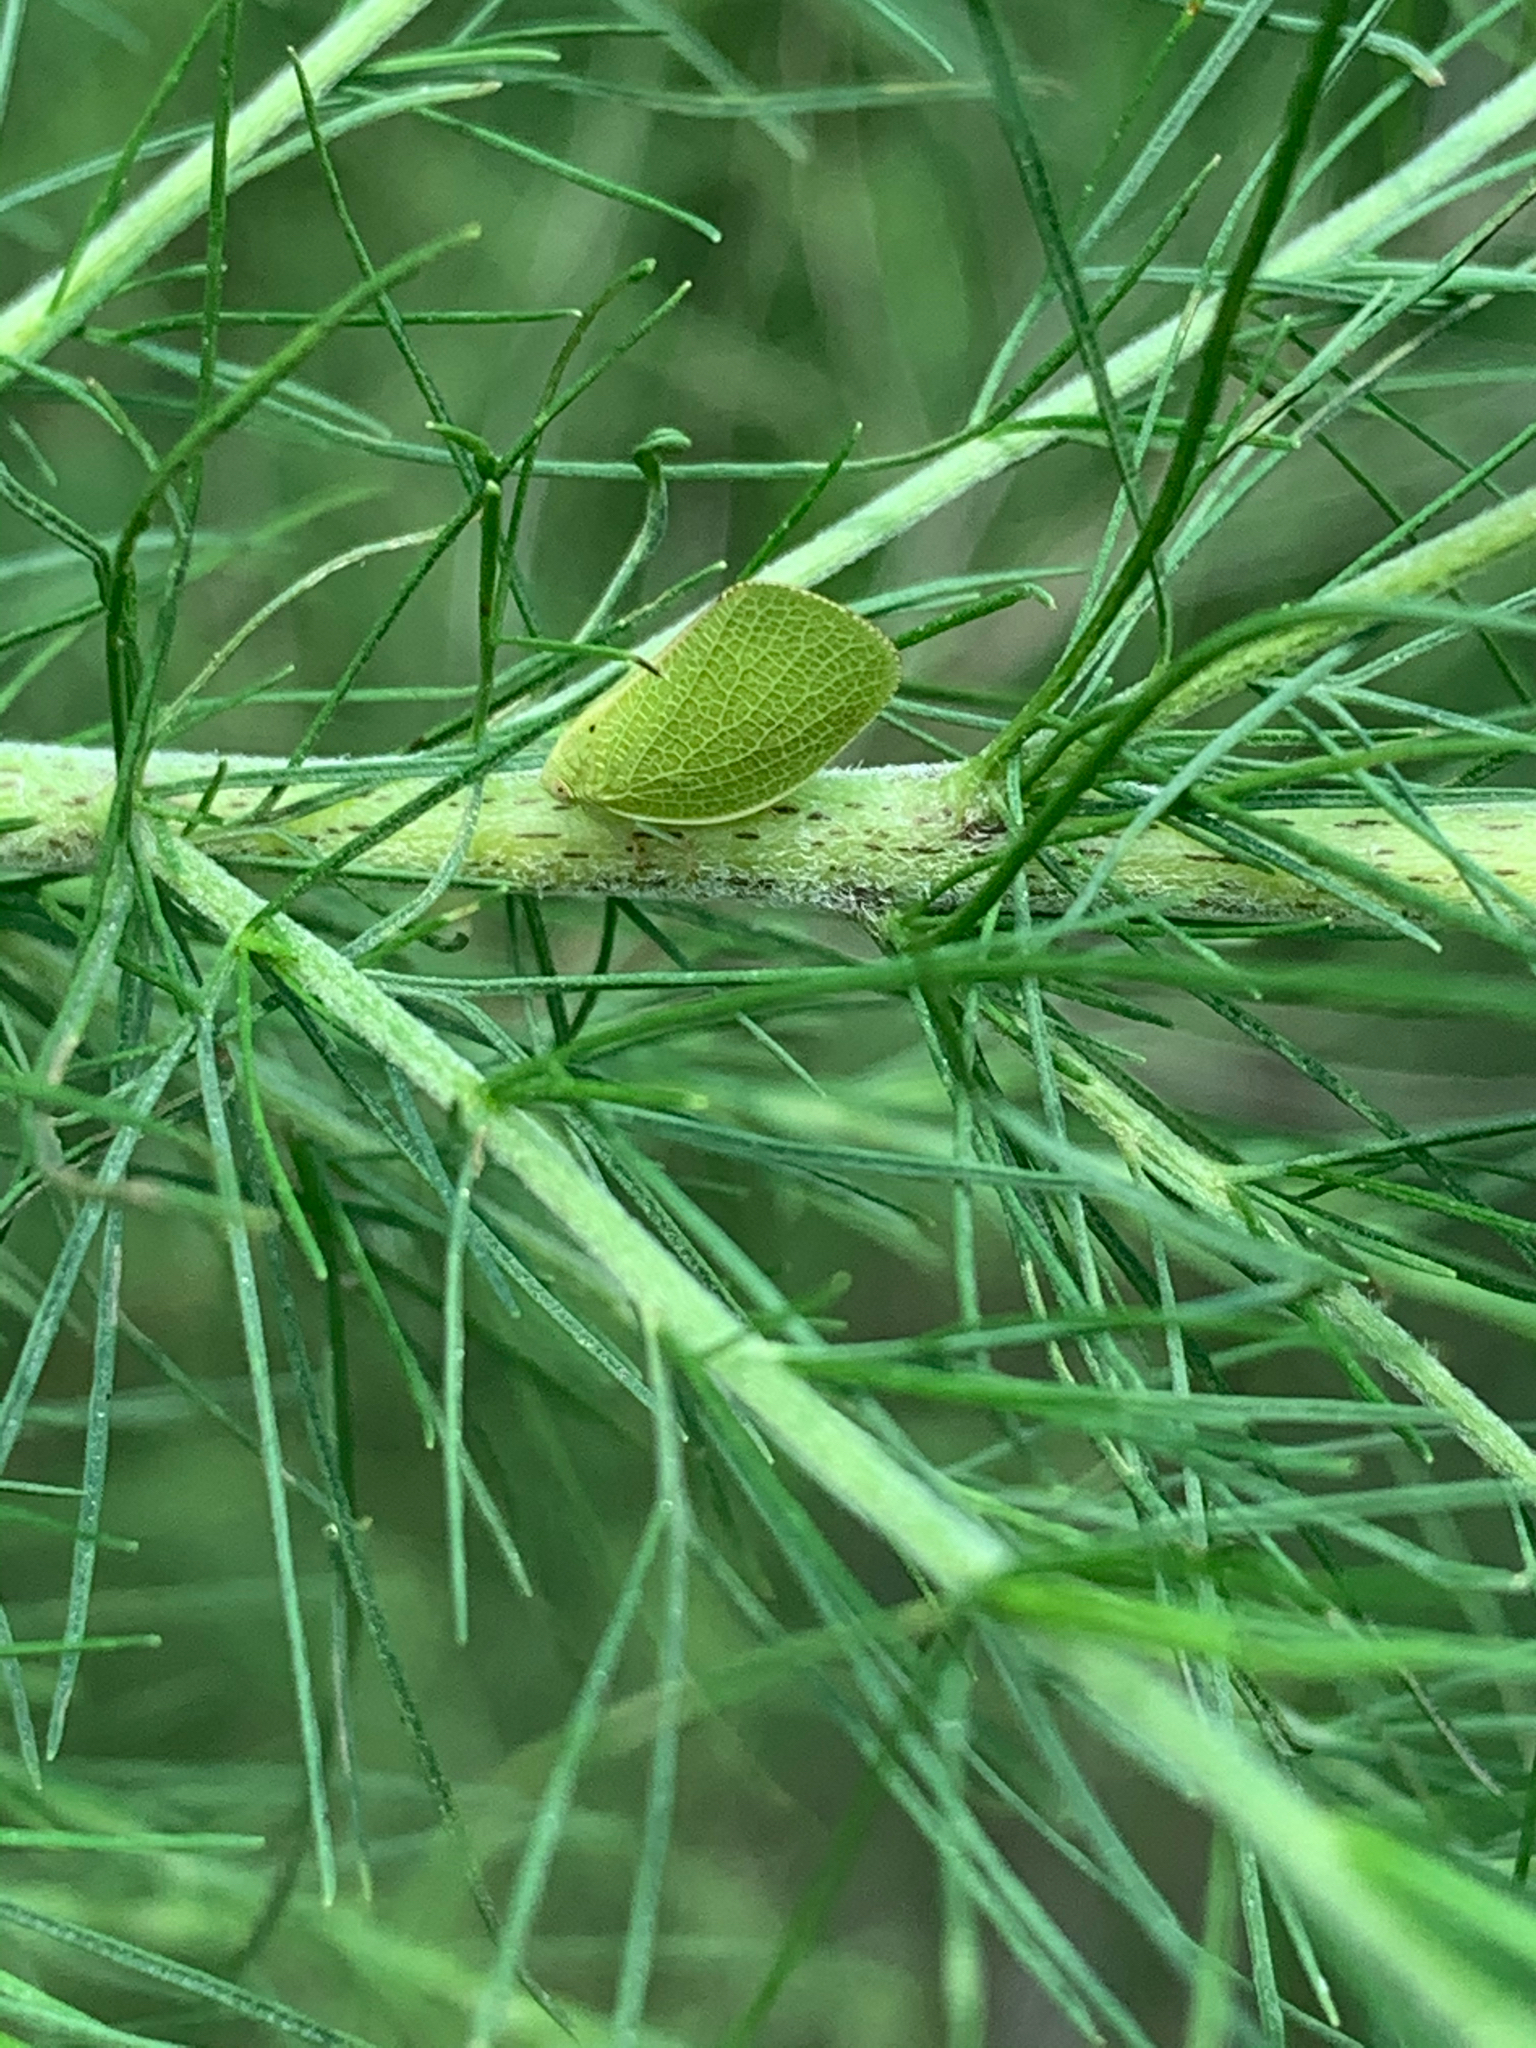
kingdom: Animalia
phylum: Arthropoda
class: Insecta
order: Hemiptera
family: Acanaloniidae
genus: Acanalonia
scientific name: Acanalonia conica
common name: Green cone-headed planthopper
